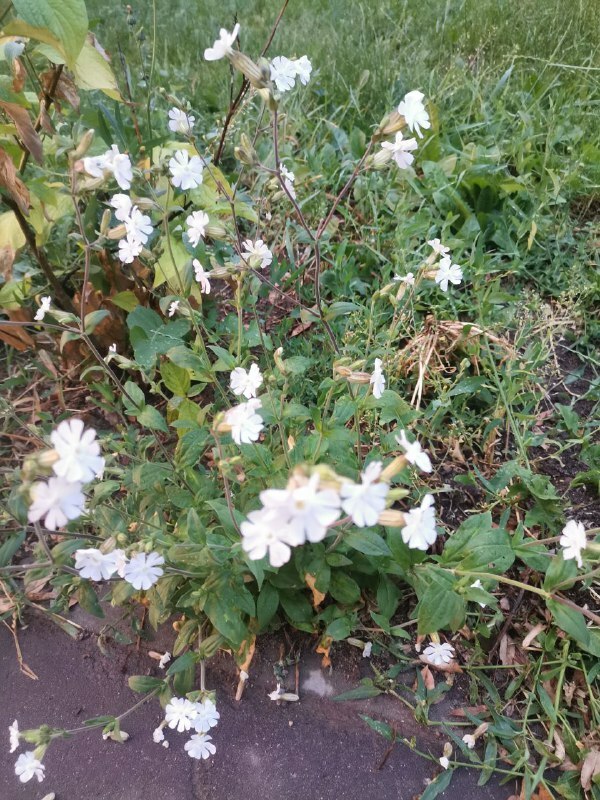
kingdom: Plantae
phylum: Tracheophyta
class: Magnoliopsida
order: Caryophyllales
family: Caryophyllaceae
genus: Silene
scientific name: Silene latifolia
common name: White campion
